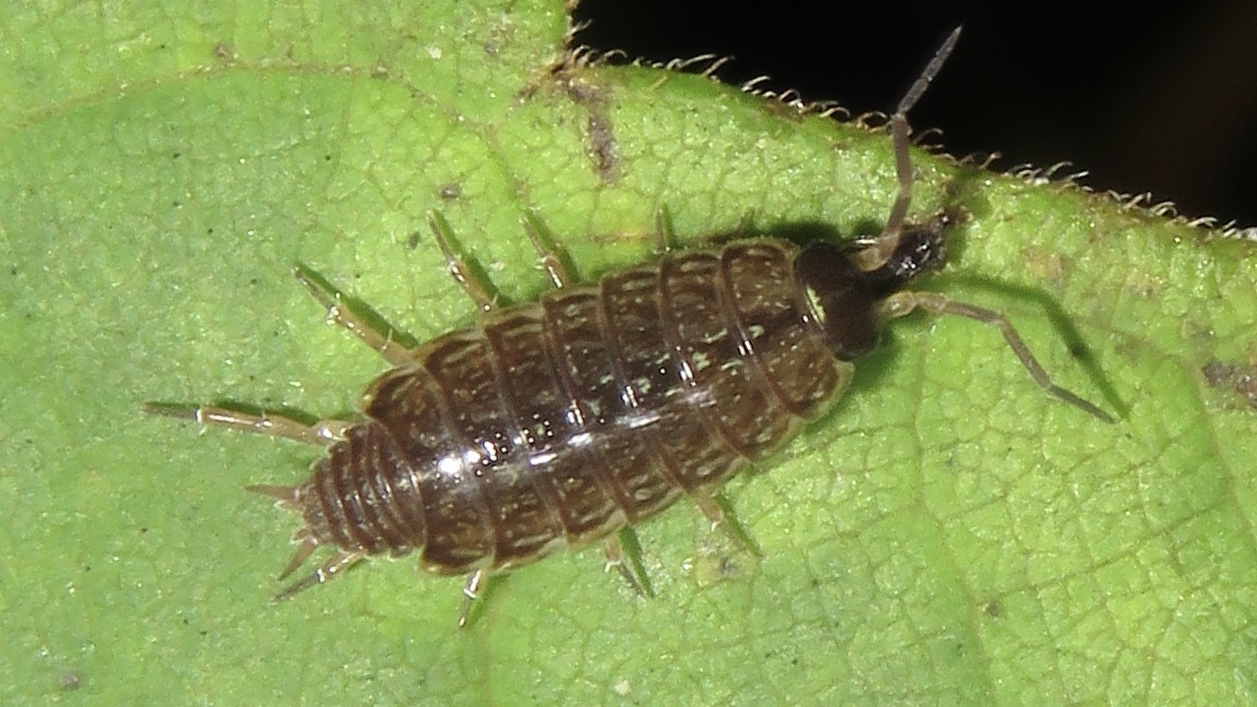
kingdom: Animalia
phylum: Arthropoda
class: Malacostraca
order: Isopoda
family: Philosciidae
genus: Philoscia
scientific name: Philoscia muscorum
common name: Common striped woodlouse
